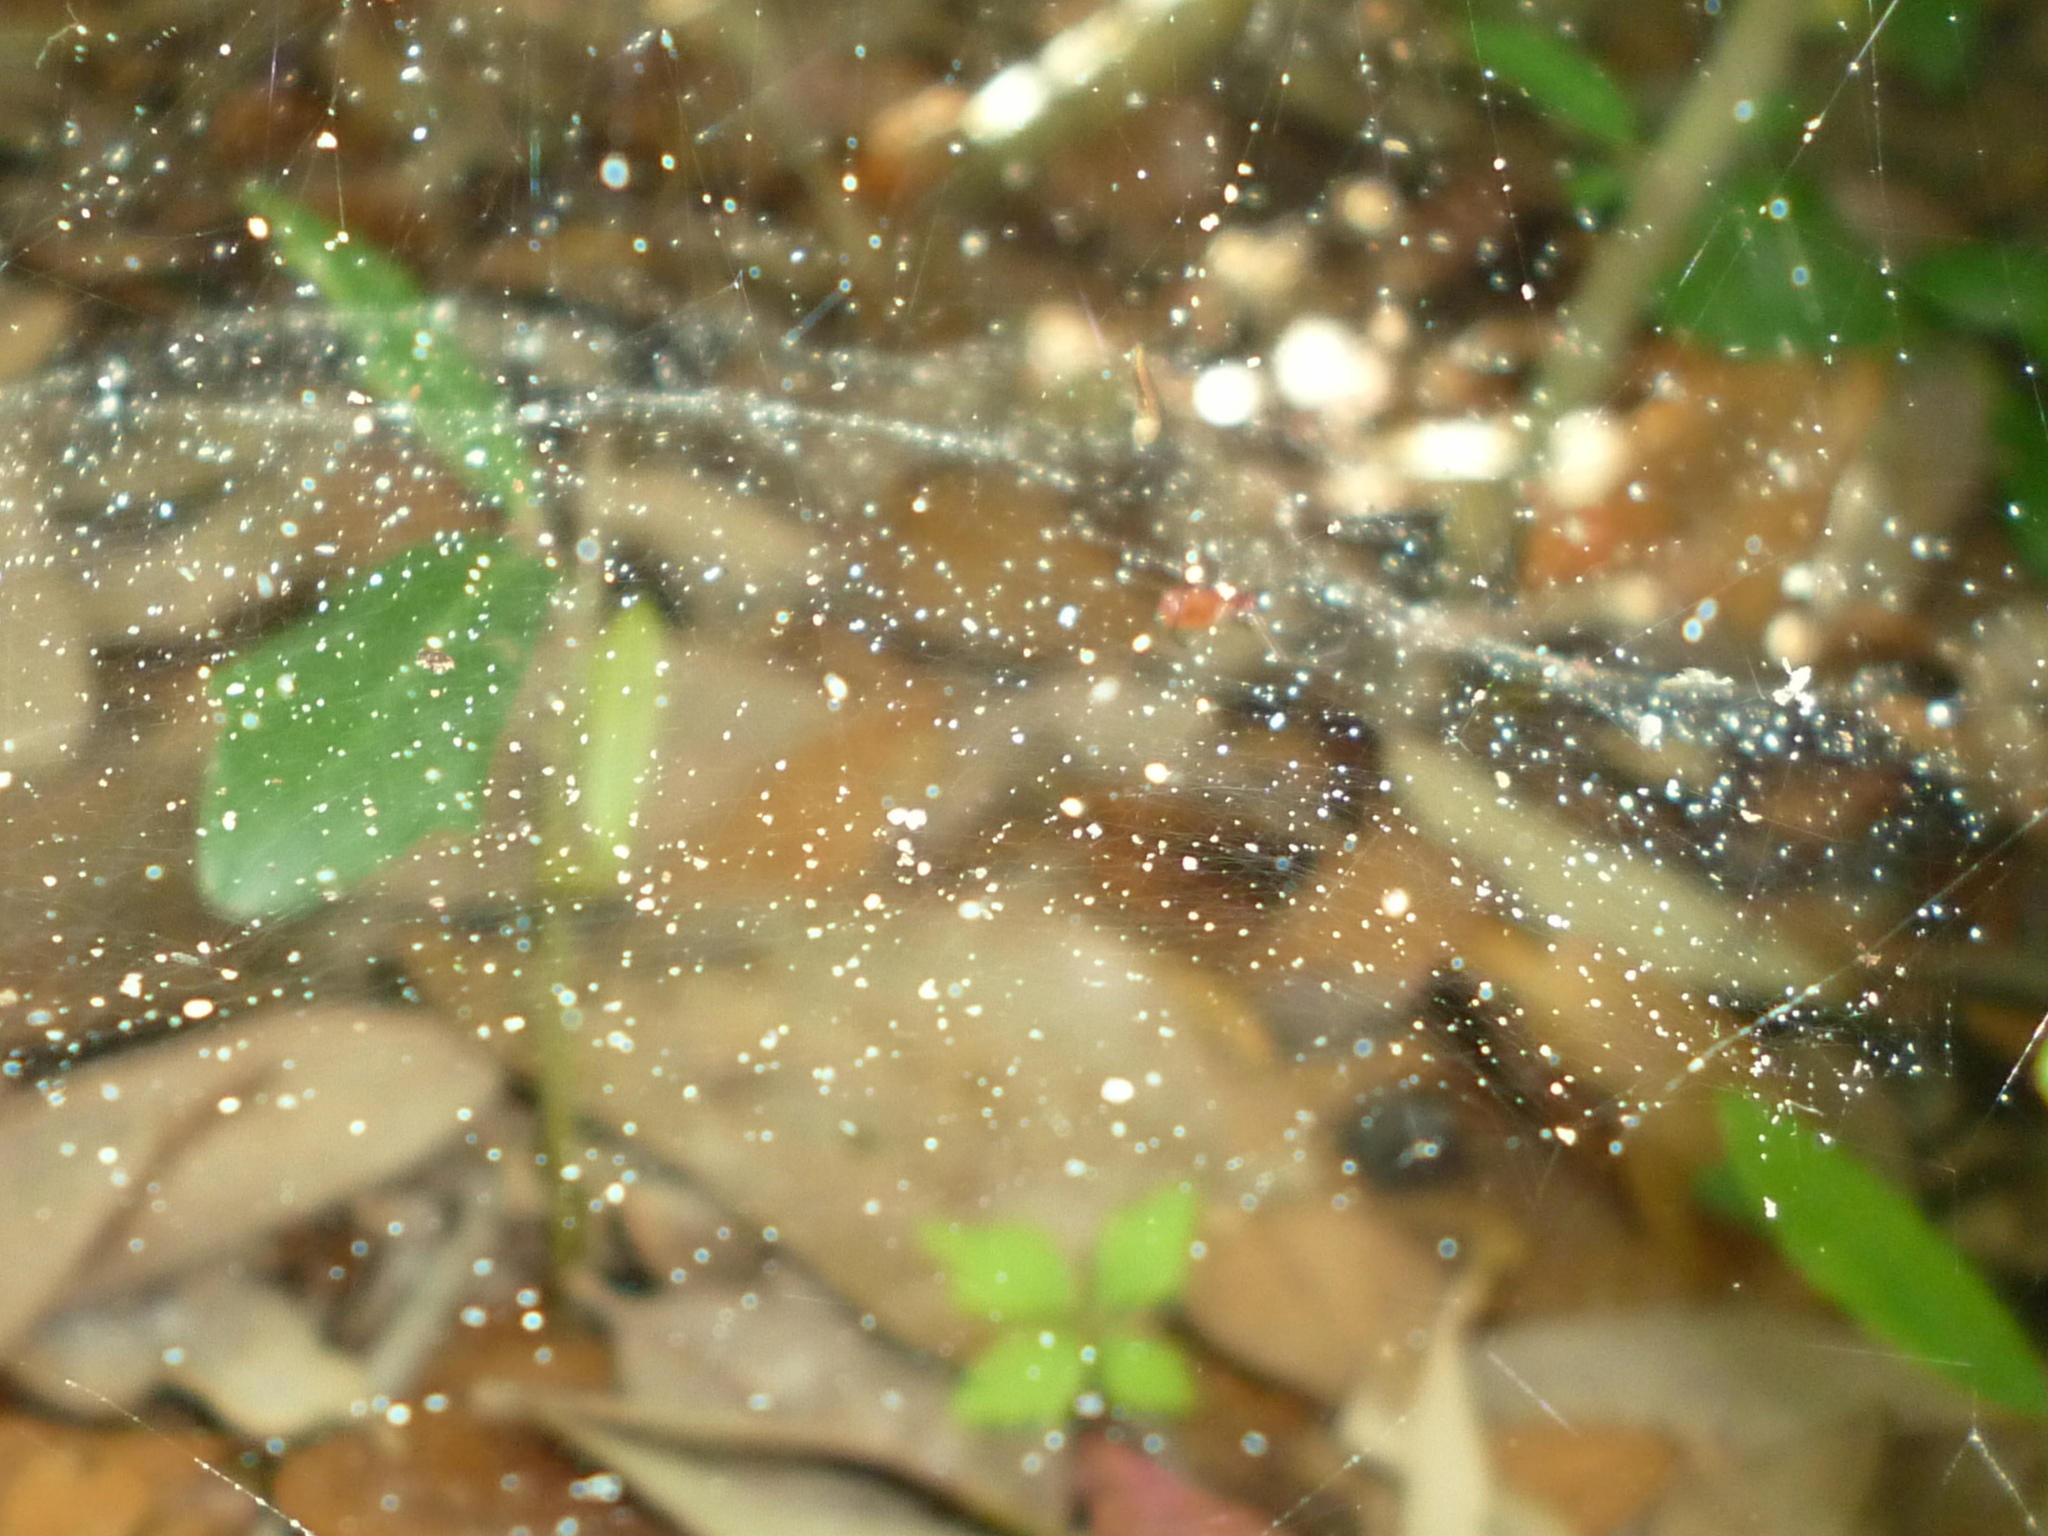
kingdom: Animalia
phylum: Arthropoda
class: Arachnida
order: Araneae
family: Linyphiidae
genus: Florinda
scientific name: Florinda coccinea
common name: Black-tailed red sheetweaver
